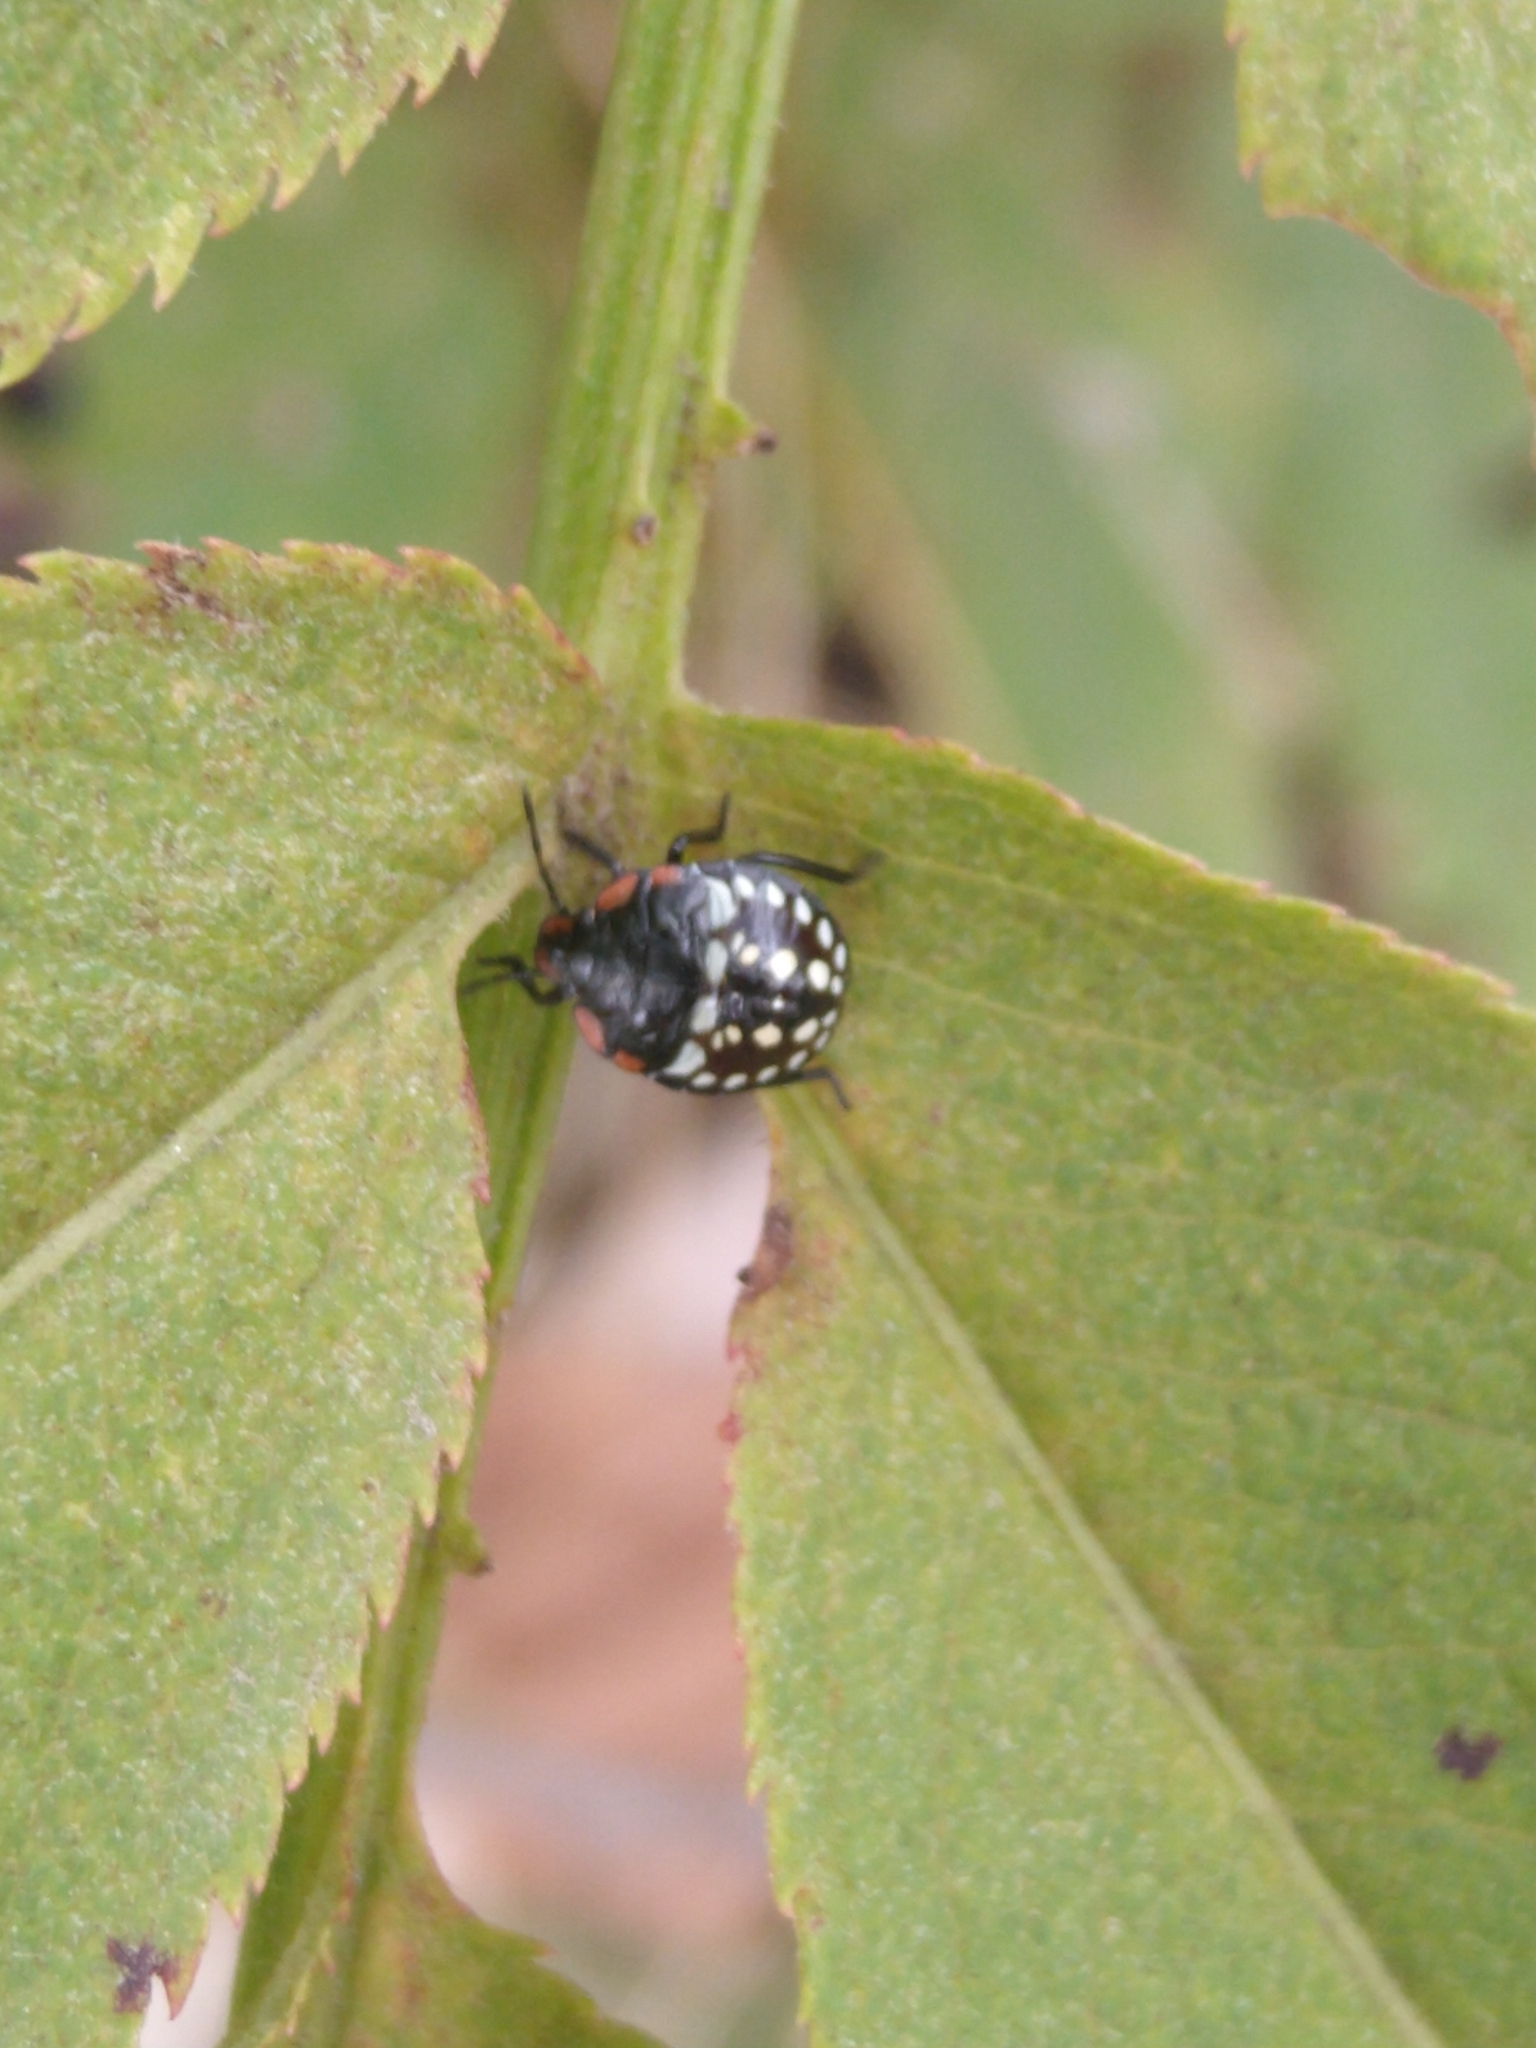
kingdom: Animalia
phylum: Arthropoda
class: Insecta
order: Hemiptera
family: Pentatomidae
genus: Nezara
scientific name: Nezara viridula
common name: Southern green stink bug
